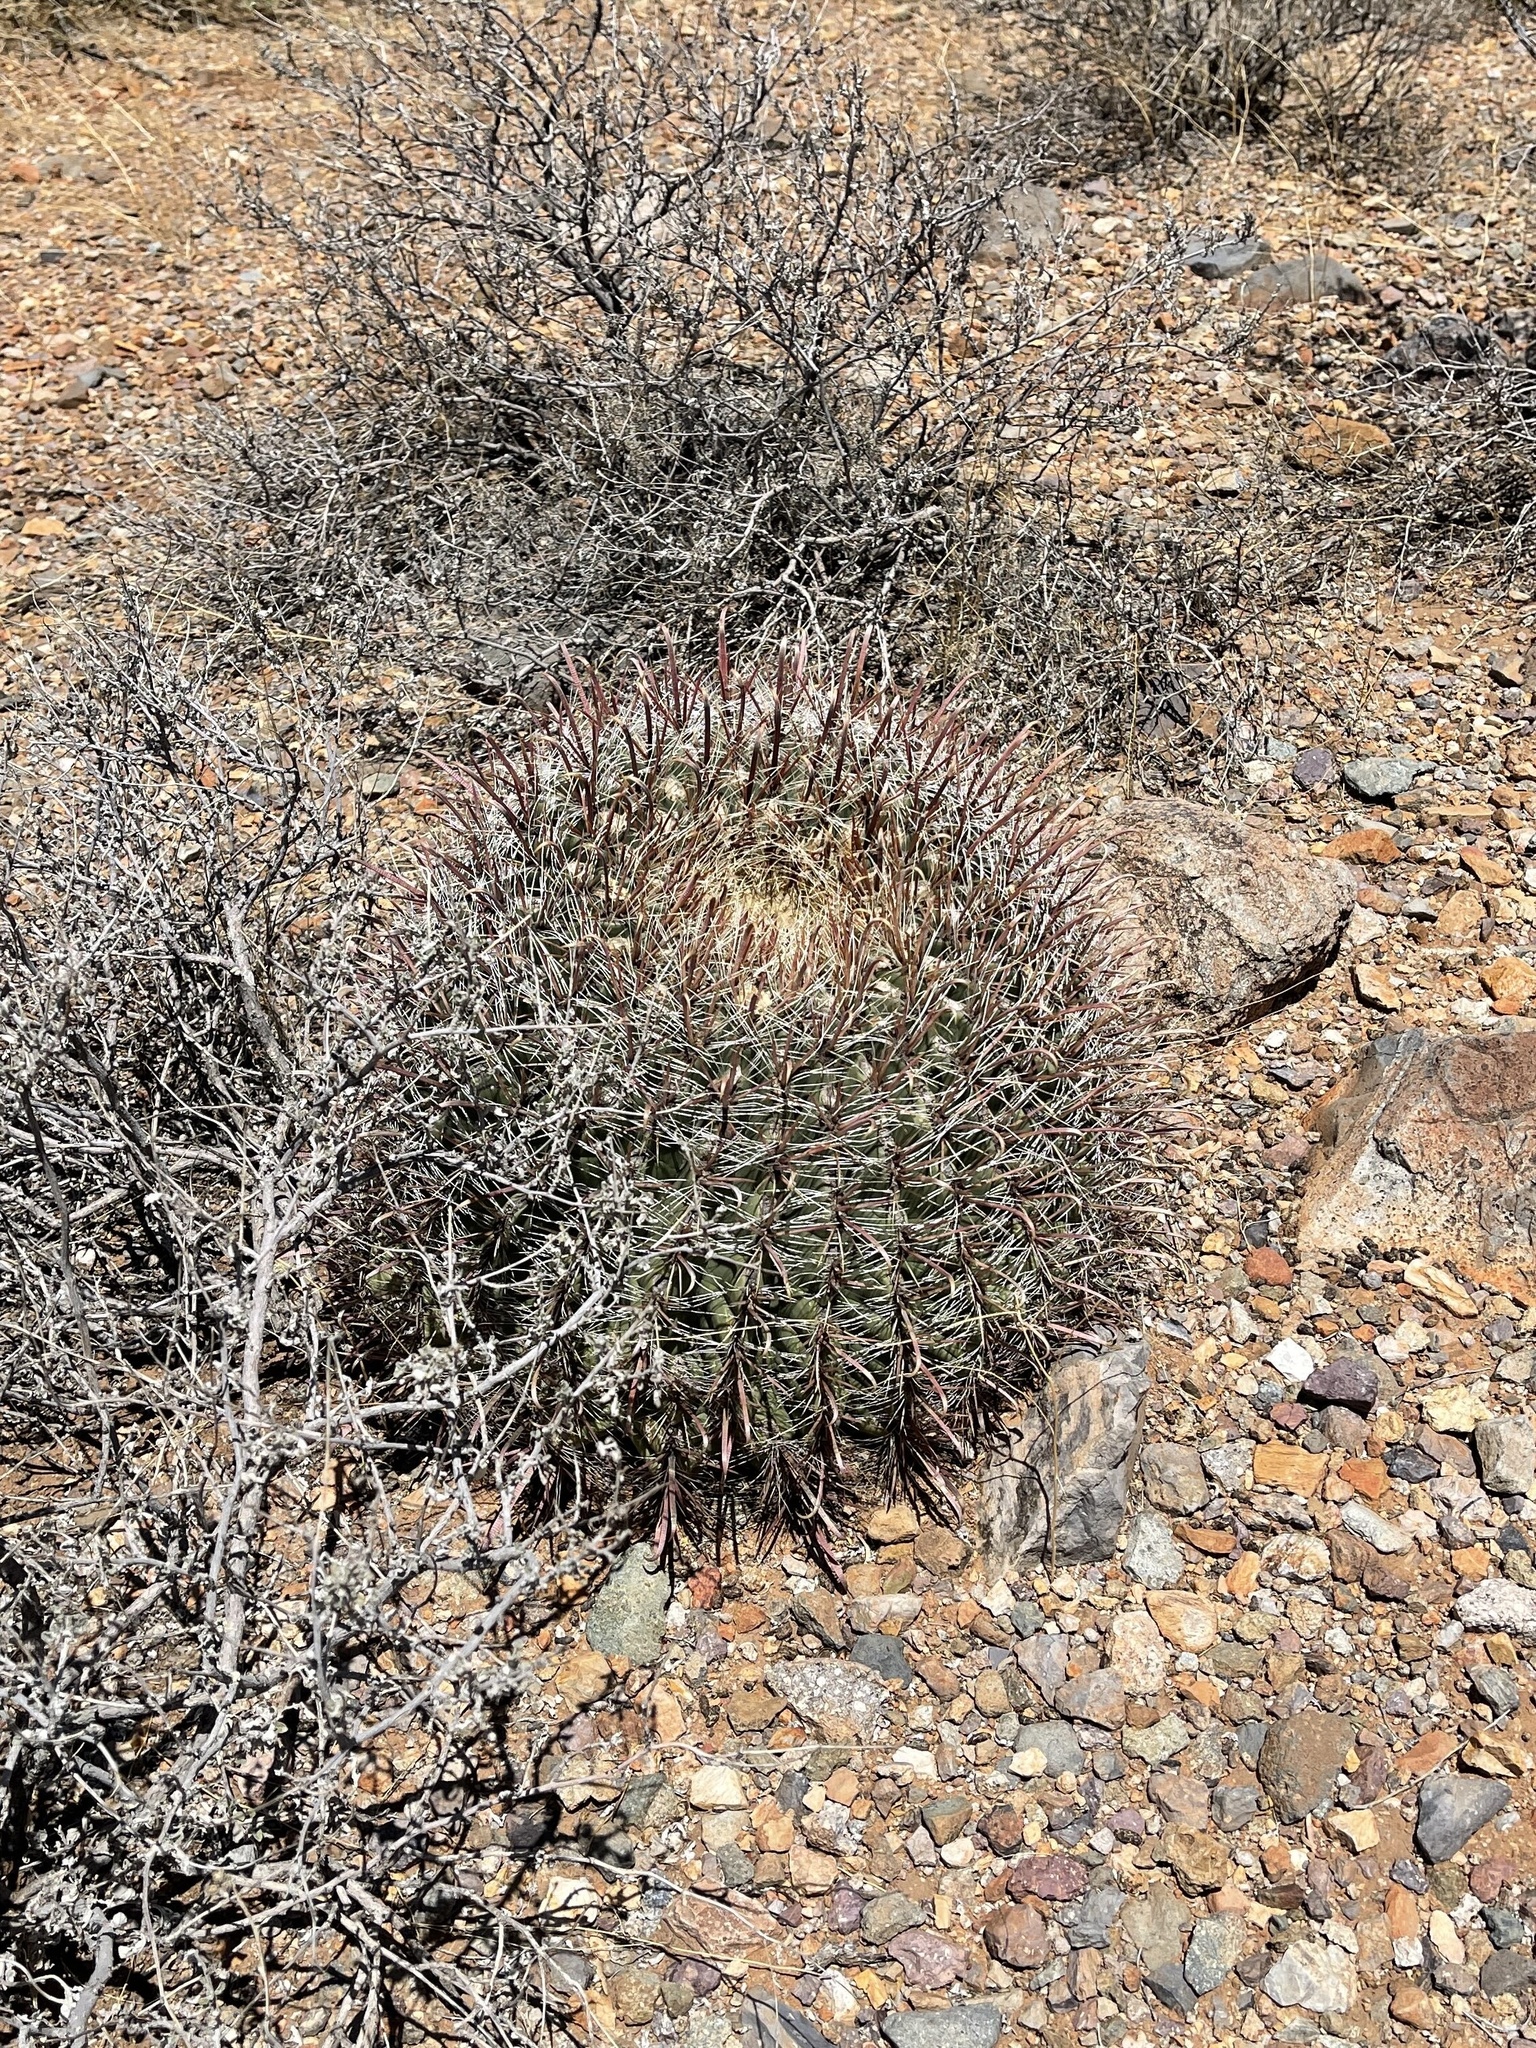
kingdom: Plantae
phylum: Tracheophyta
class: Magnoliopsida
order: Caryophyllales
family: Cactaceae
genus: Ferocactus
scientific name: Ferocactus wislizeni
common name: Candy barrel cactus
